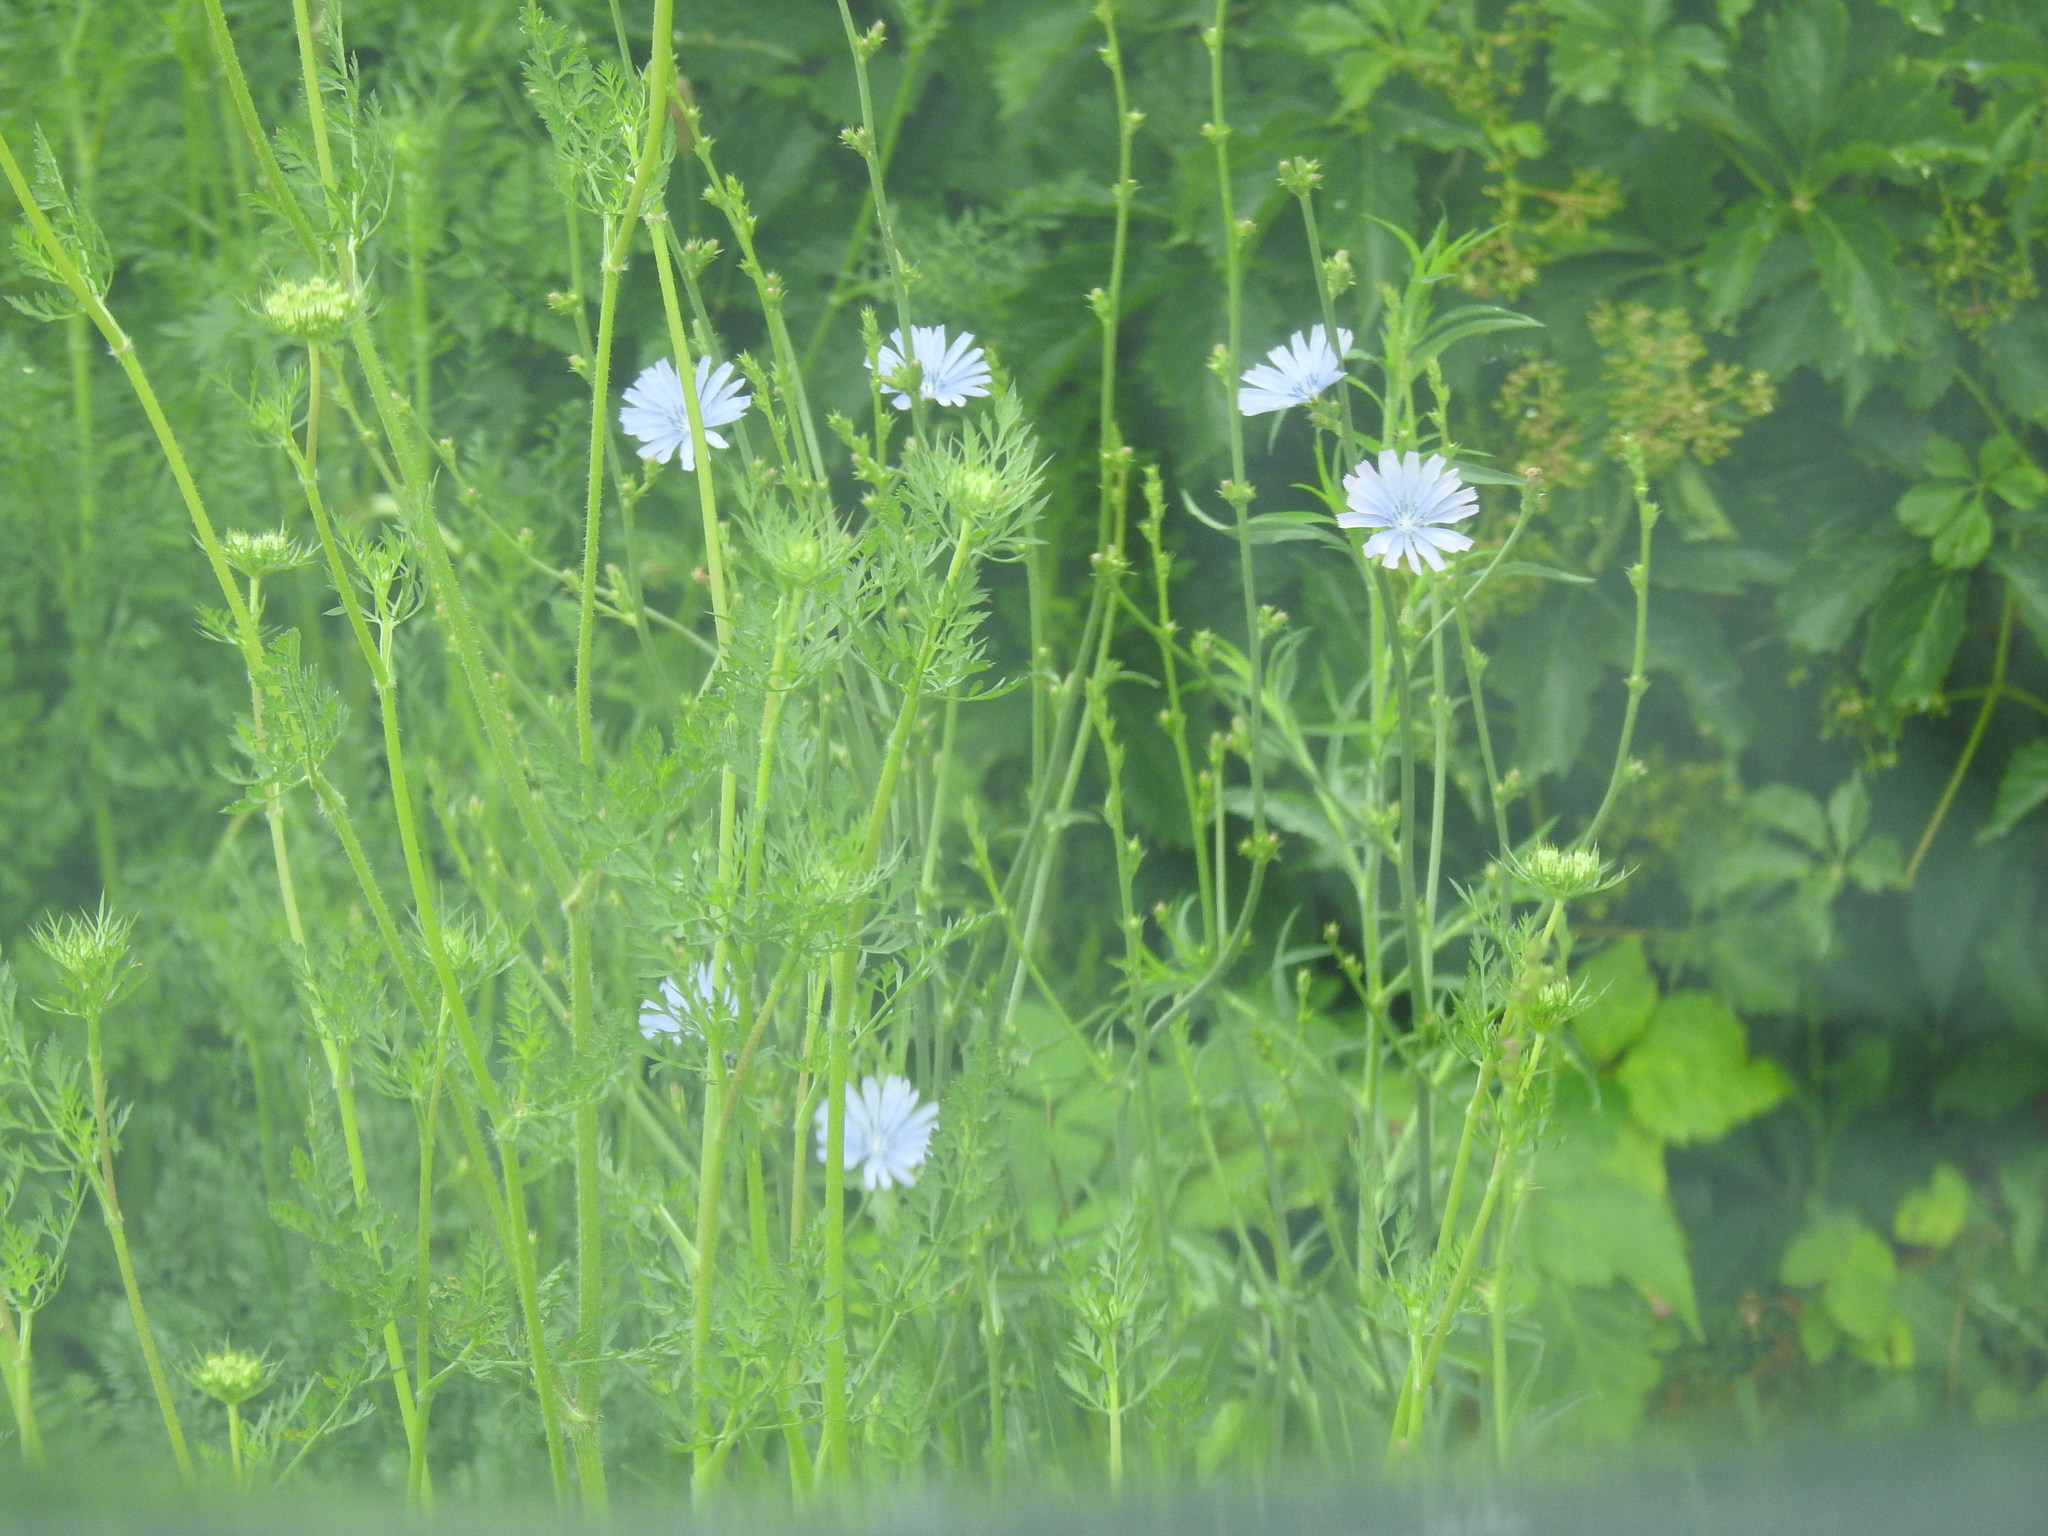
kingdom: Plantae
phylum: Tracheophyta
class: Magnoliopsida
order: Asterales
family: Asteraceae
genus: Cichorium
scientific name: Cichorium intybus
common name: Chicory
